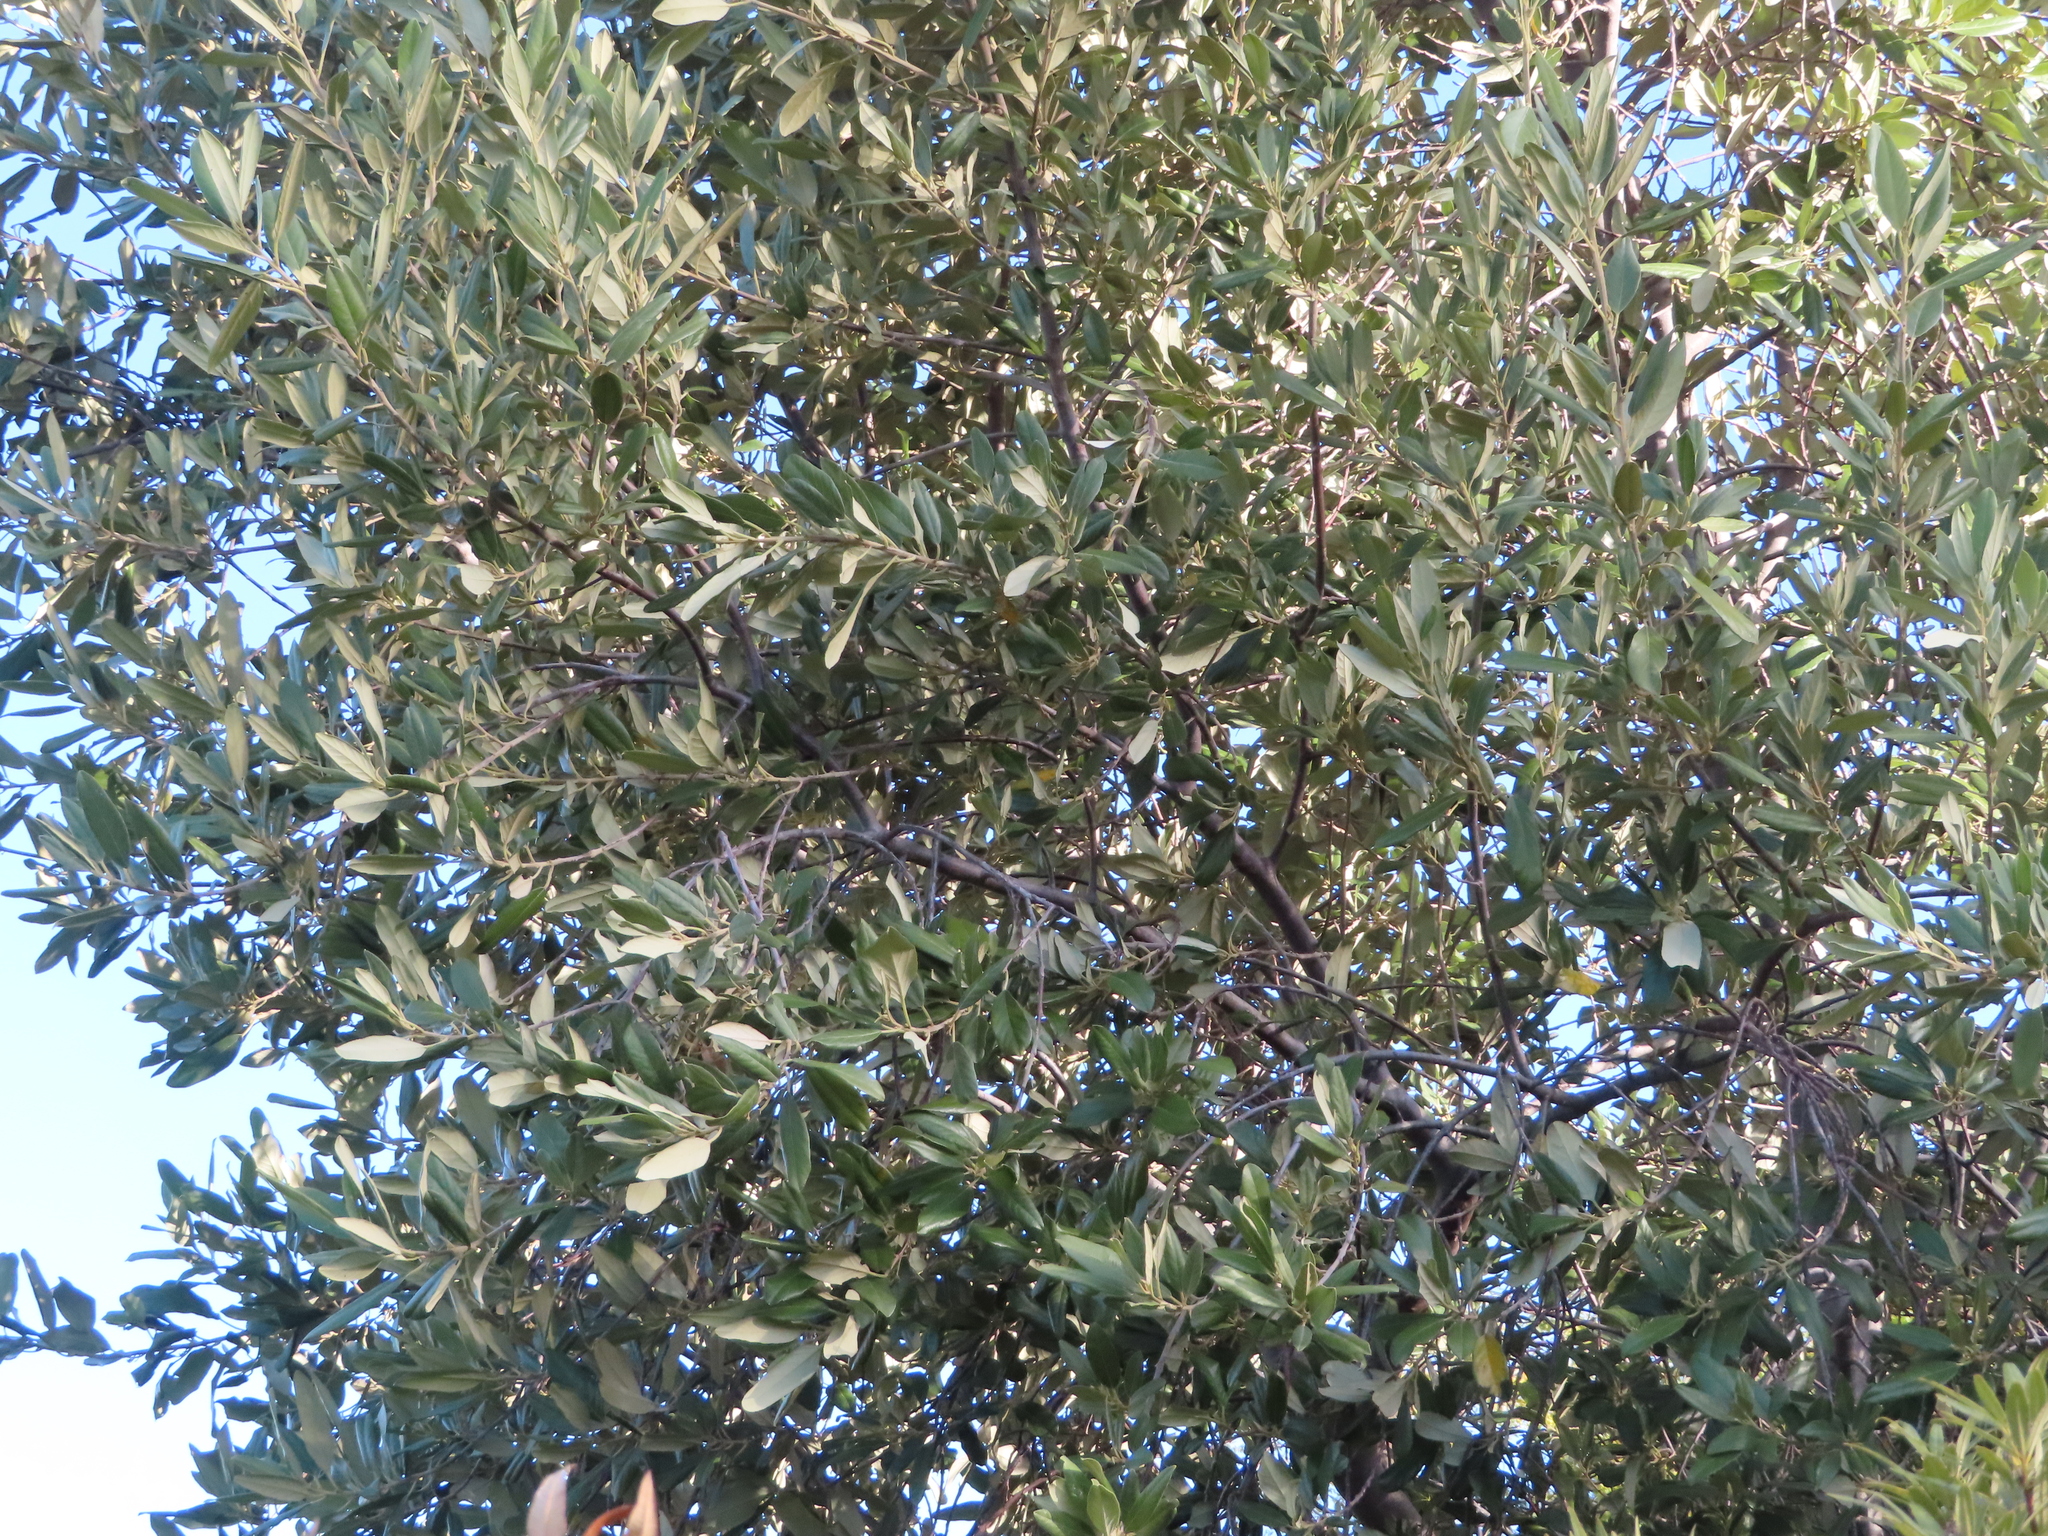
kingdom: Plantae
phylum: Tracheophyta
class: Magnoliopsida
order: Malpighiales
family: Achariaceae
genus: Kiggelaria
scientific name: Kiggelaria africana
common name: Wild peach
